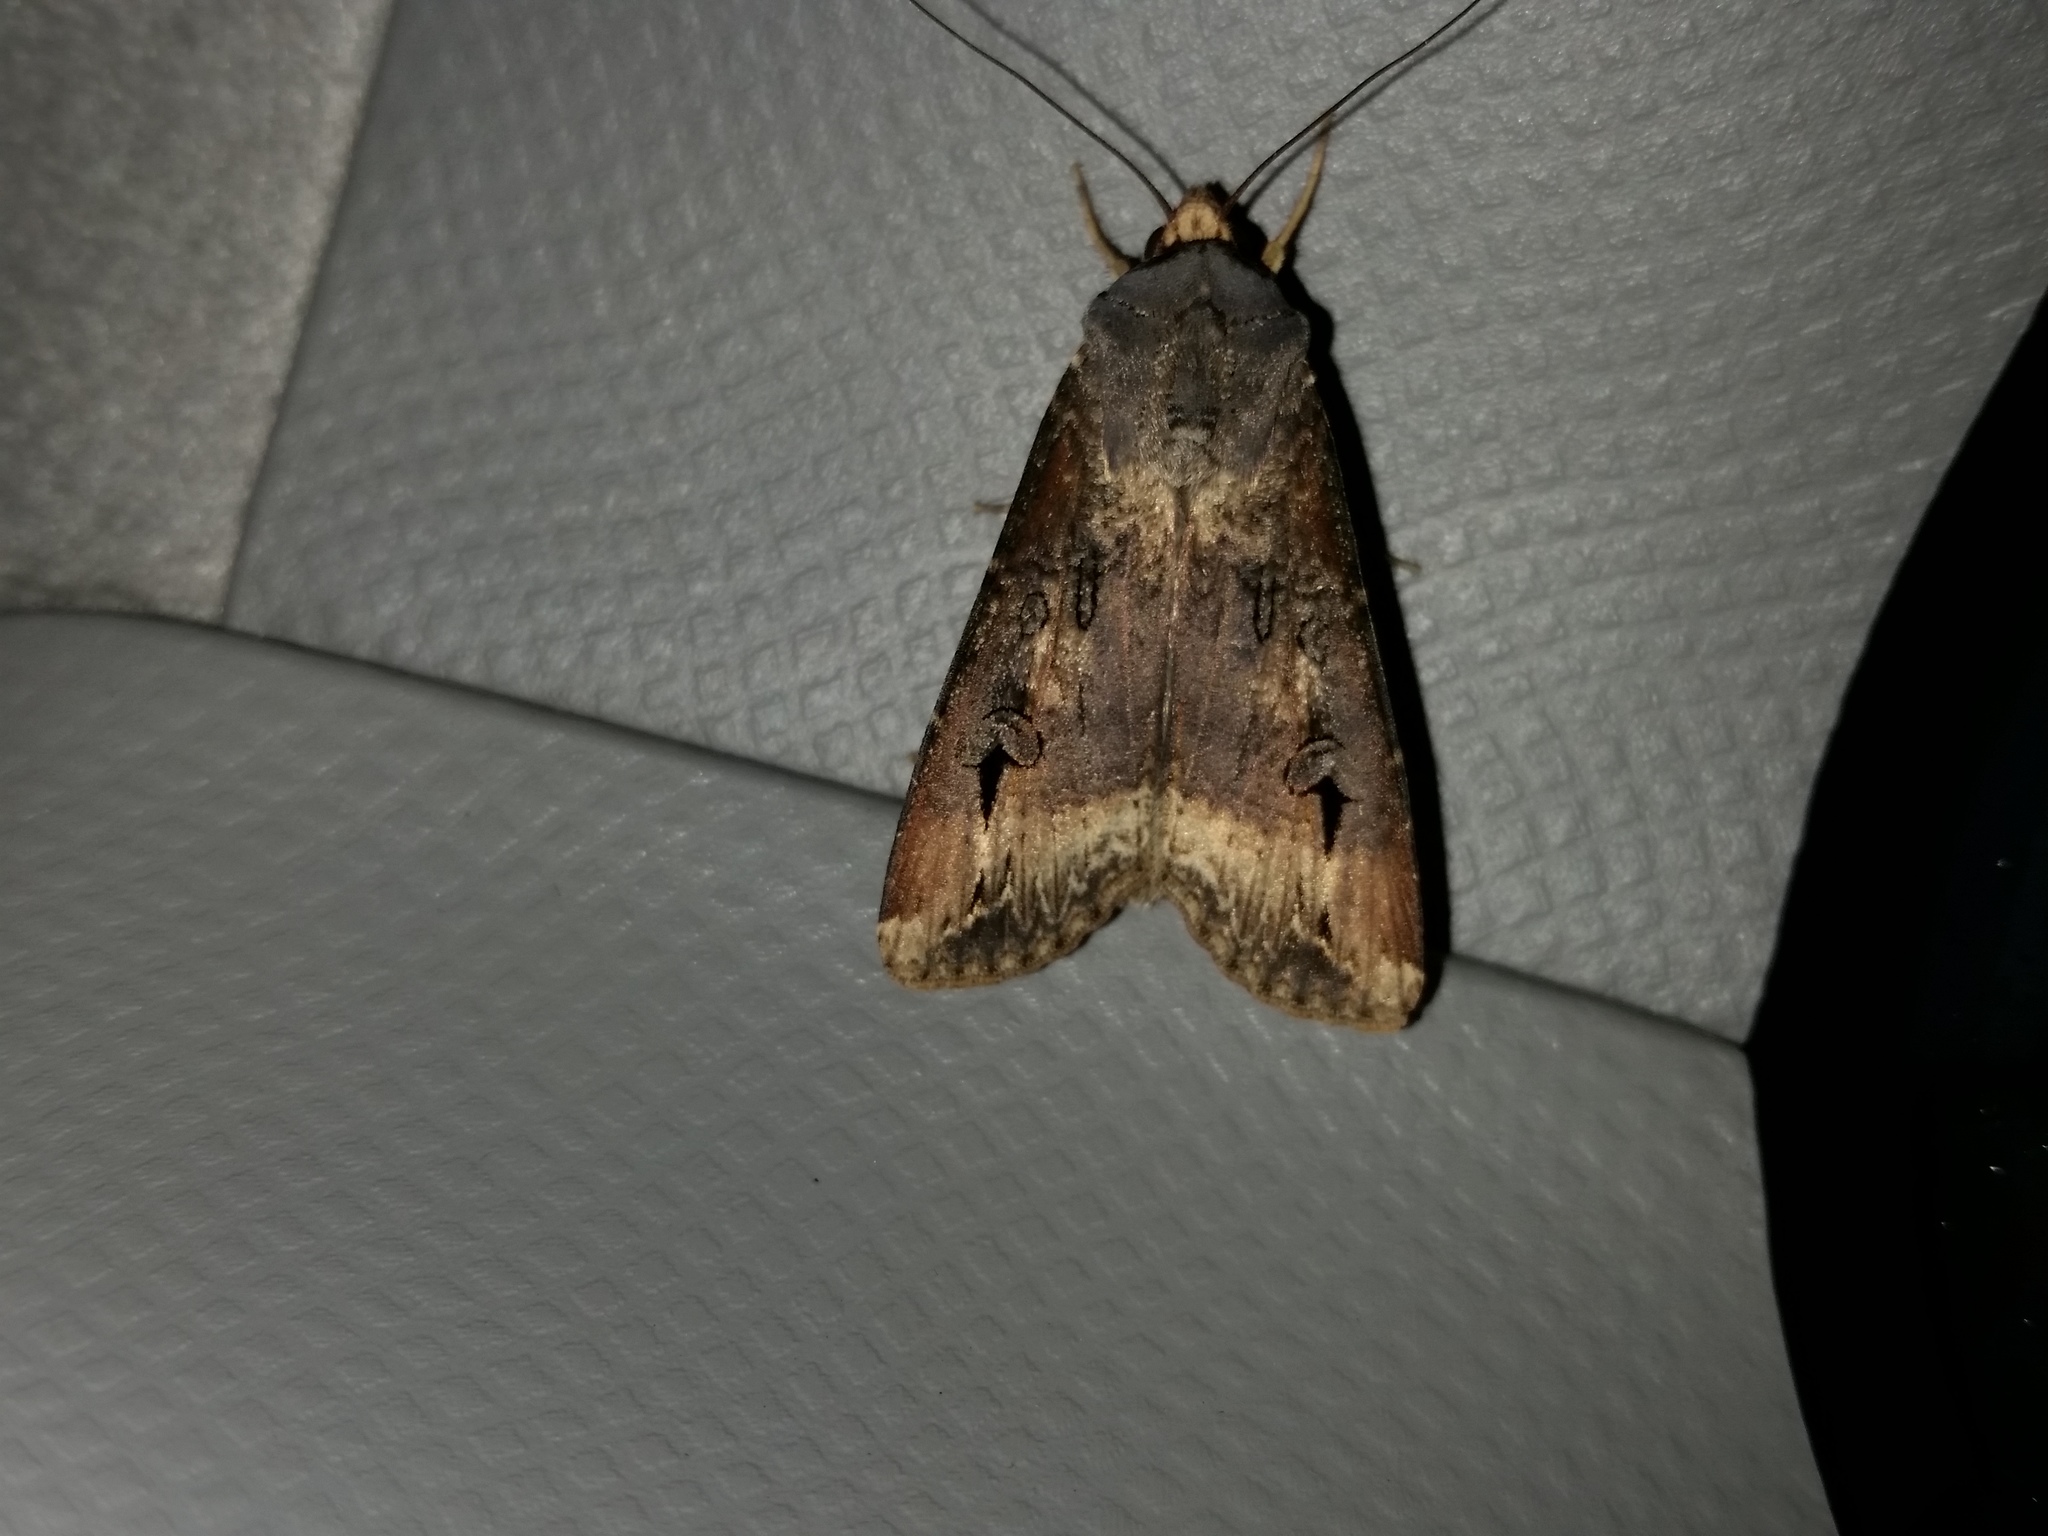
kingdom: Animalia
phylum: Arthropoda
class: Insecta
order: Lepidoptera
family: Noctuidae
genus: Agrotis
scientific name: Agrotis ipsilon
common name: Dark sword-grass
